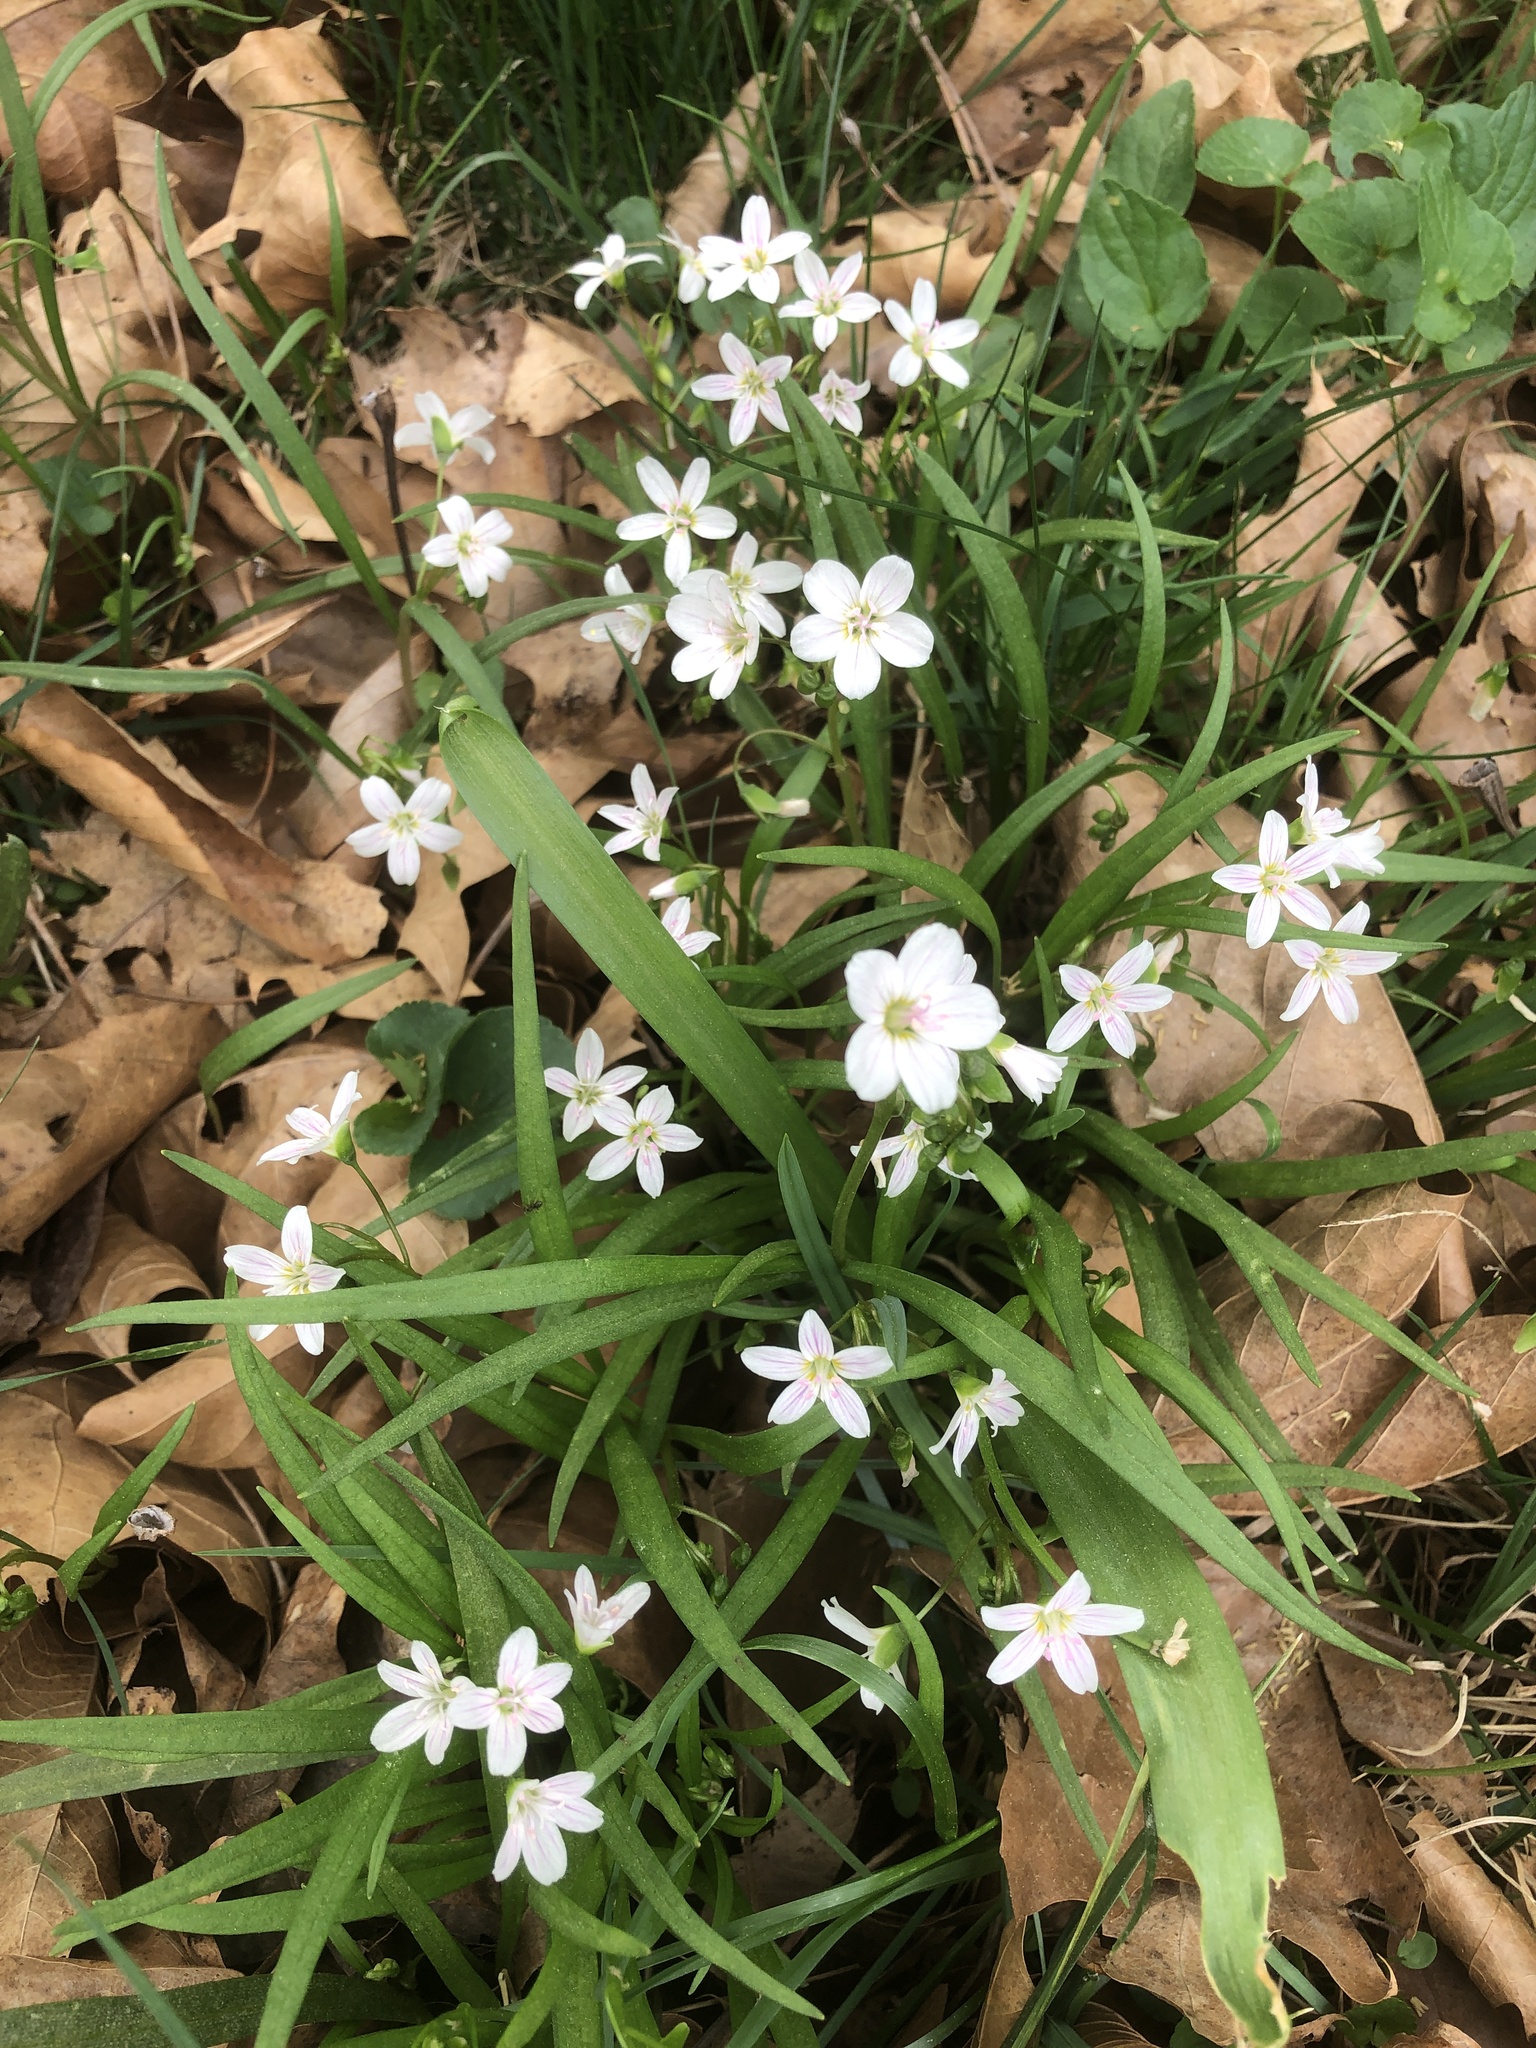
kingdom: Plantae
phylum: Tracheophyta
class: Magnoliopsida
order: Caryophyllales
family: Montiaceae
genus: Claytonia
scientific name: Claytonia virginica
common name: Virginia springbeauty
